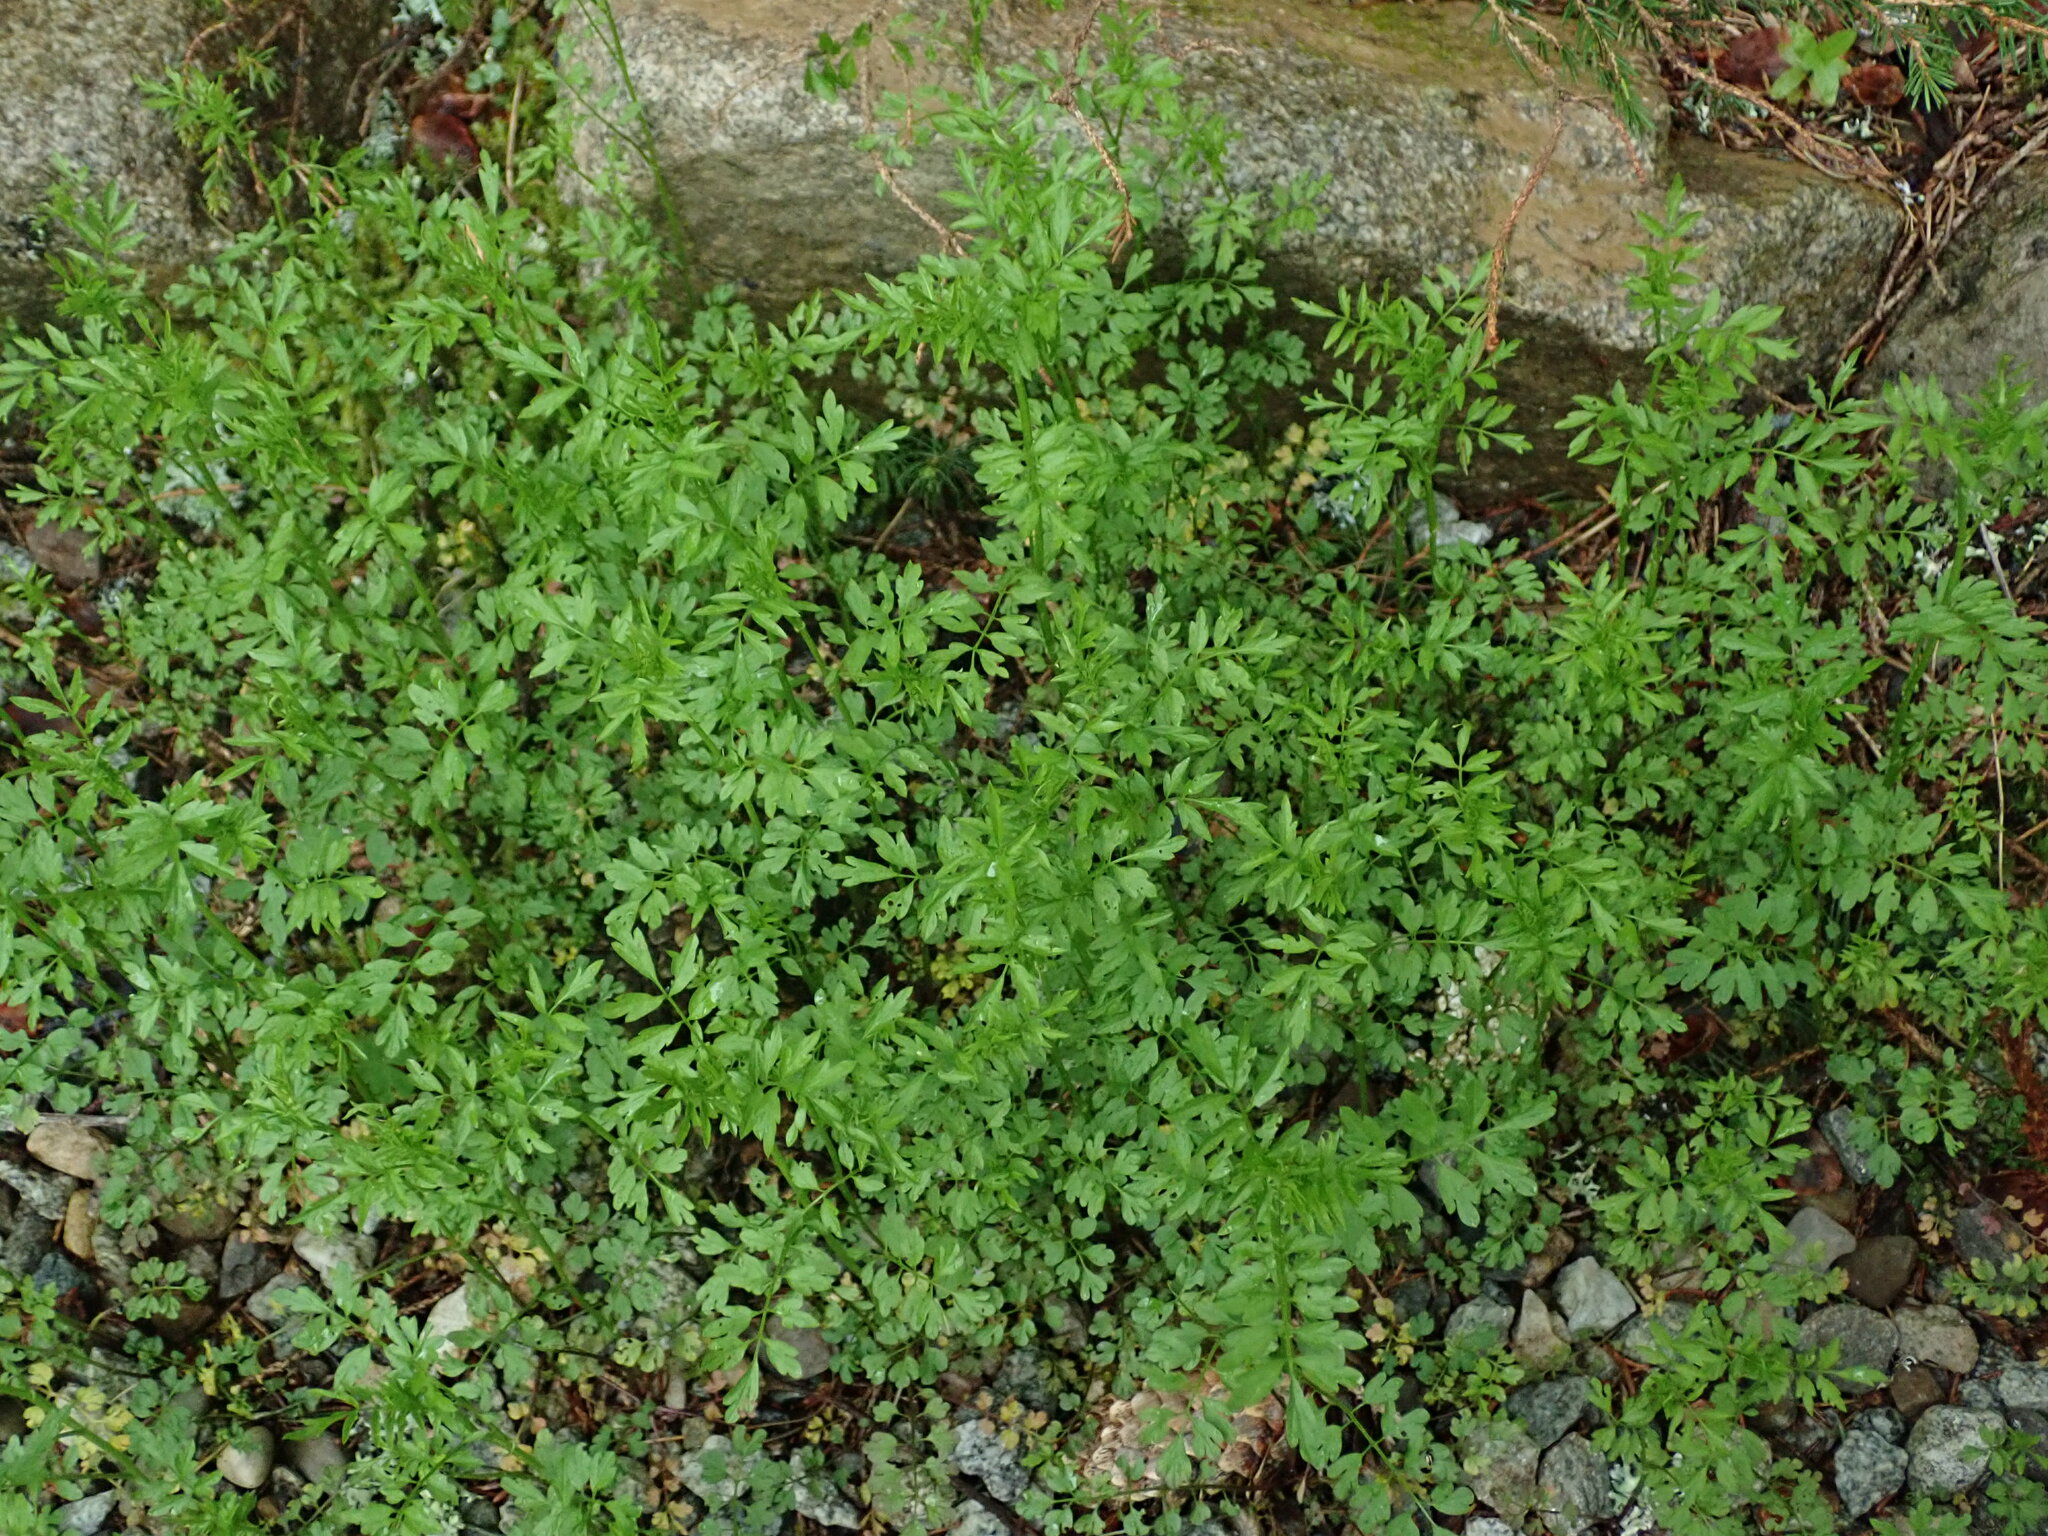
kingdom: Plantae
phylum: Tracheophyta
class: Magnoliopsida
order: Brassicales
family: Brassicaceae
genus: Cardamine
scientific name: Cardamine impatiens
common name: Narrow-leaved bitter-cress
